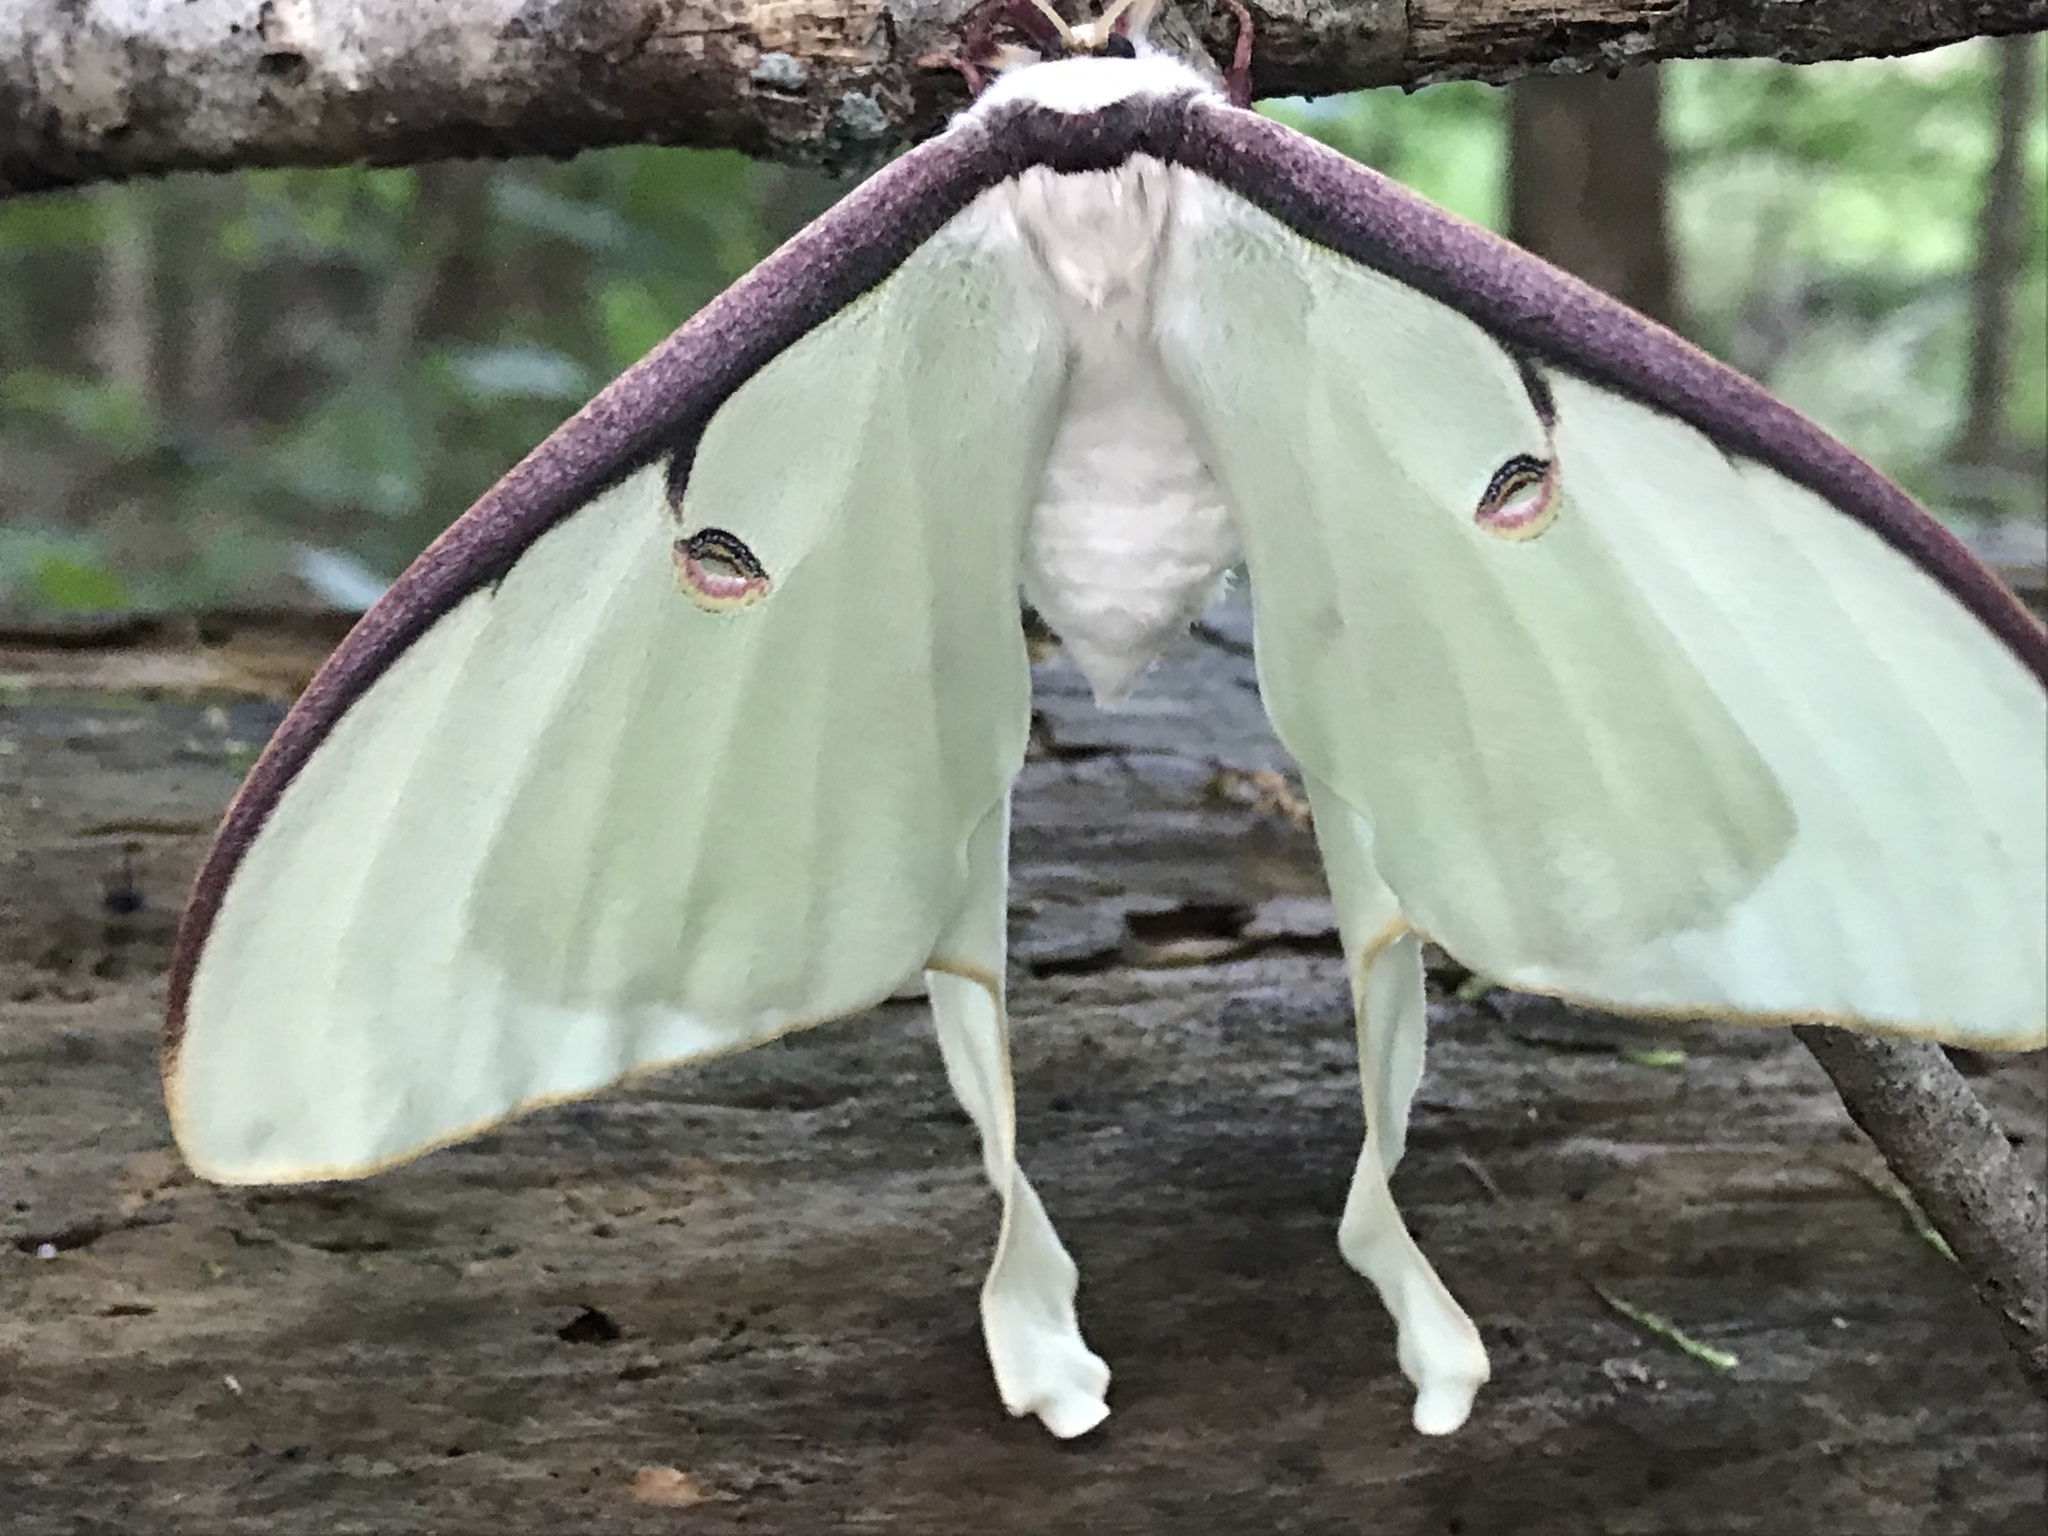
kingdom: Animalia
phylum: Arthropoda
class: Insecta
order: Lepidoptera
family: Saturniidae
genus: Actias
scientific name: Actias luna
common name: Luna moth
